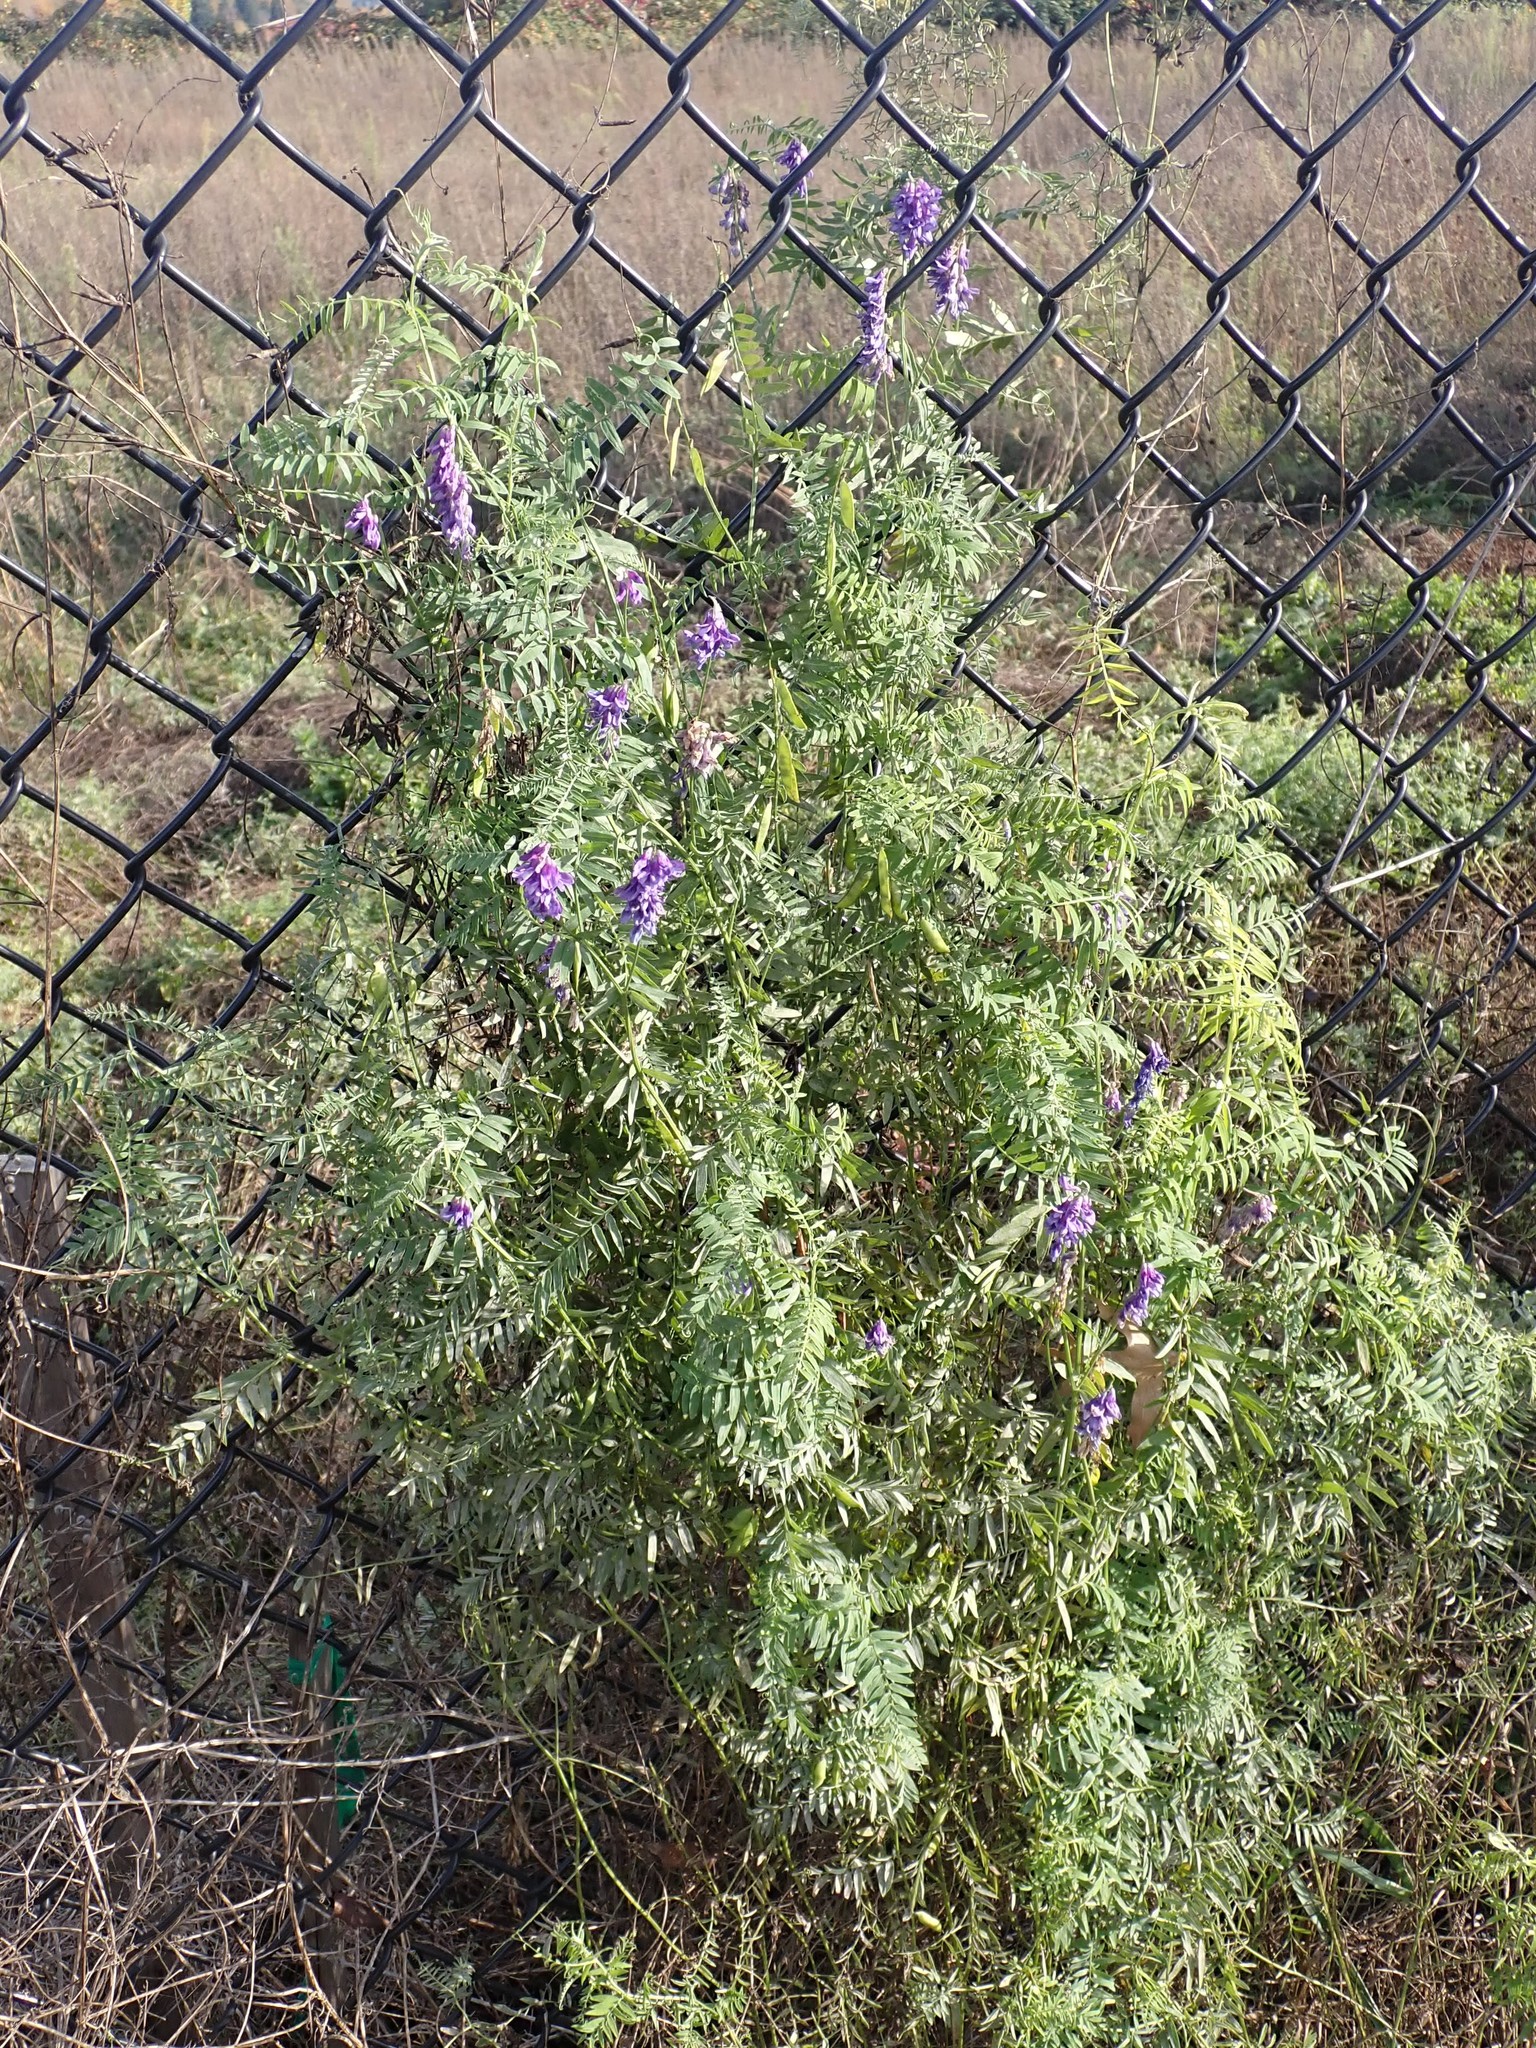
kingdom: Plantae
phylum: Tracheophyta
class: Magnoliopsida
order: Fabales
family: Fabaceae
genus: Vicia
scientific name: Vicia cracca
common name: Bird vetch
